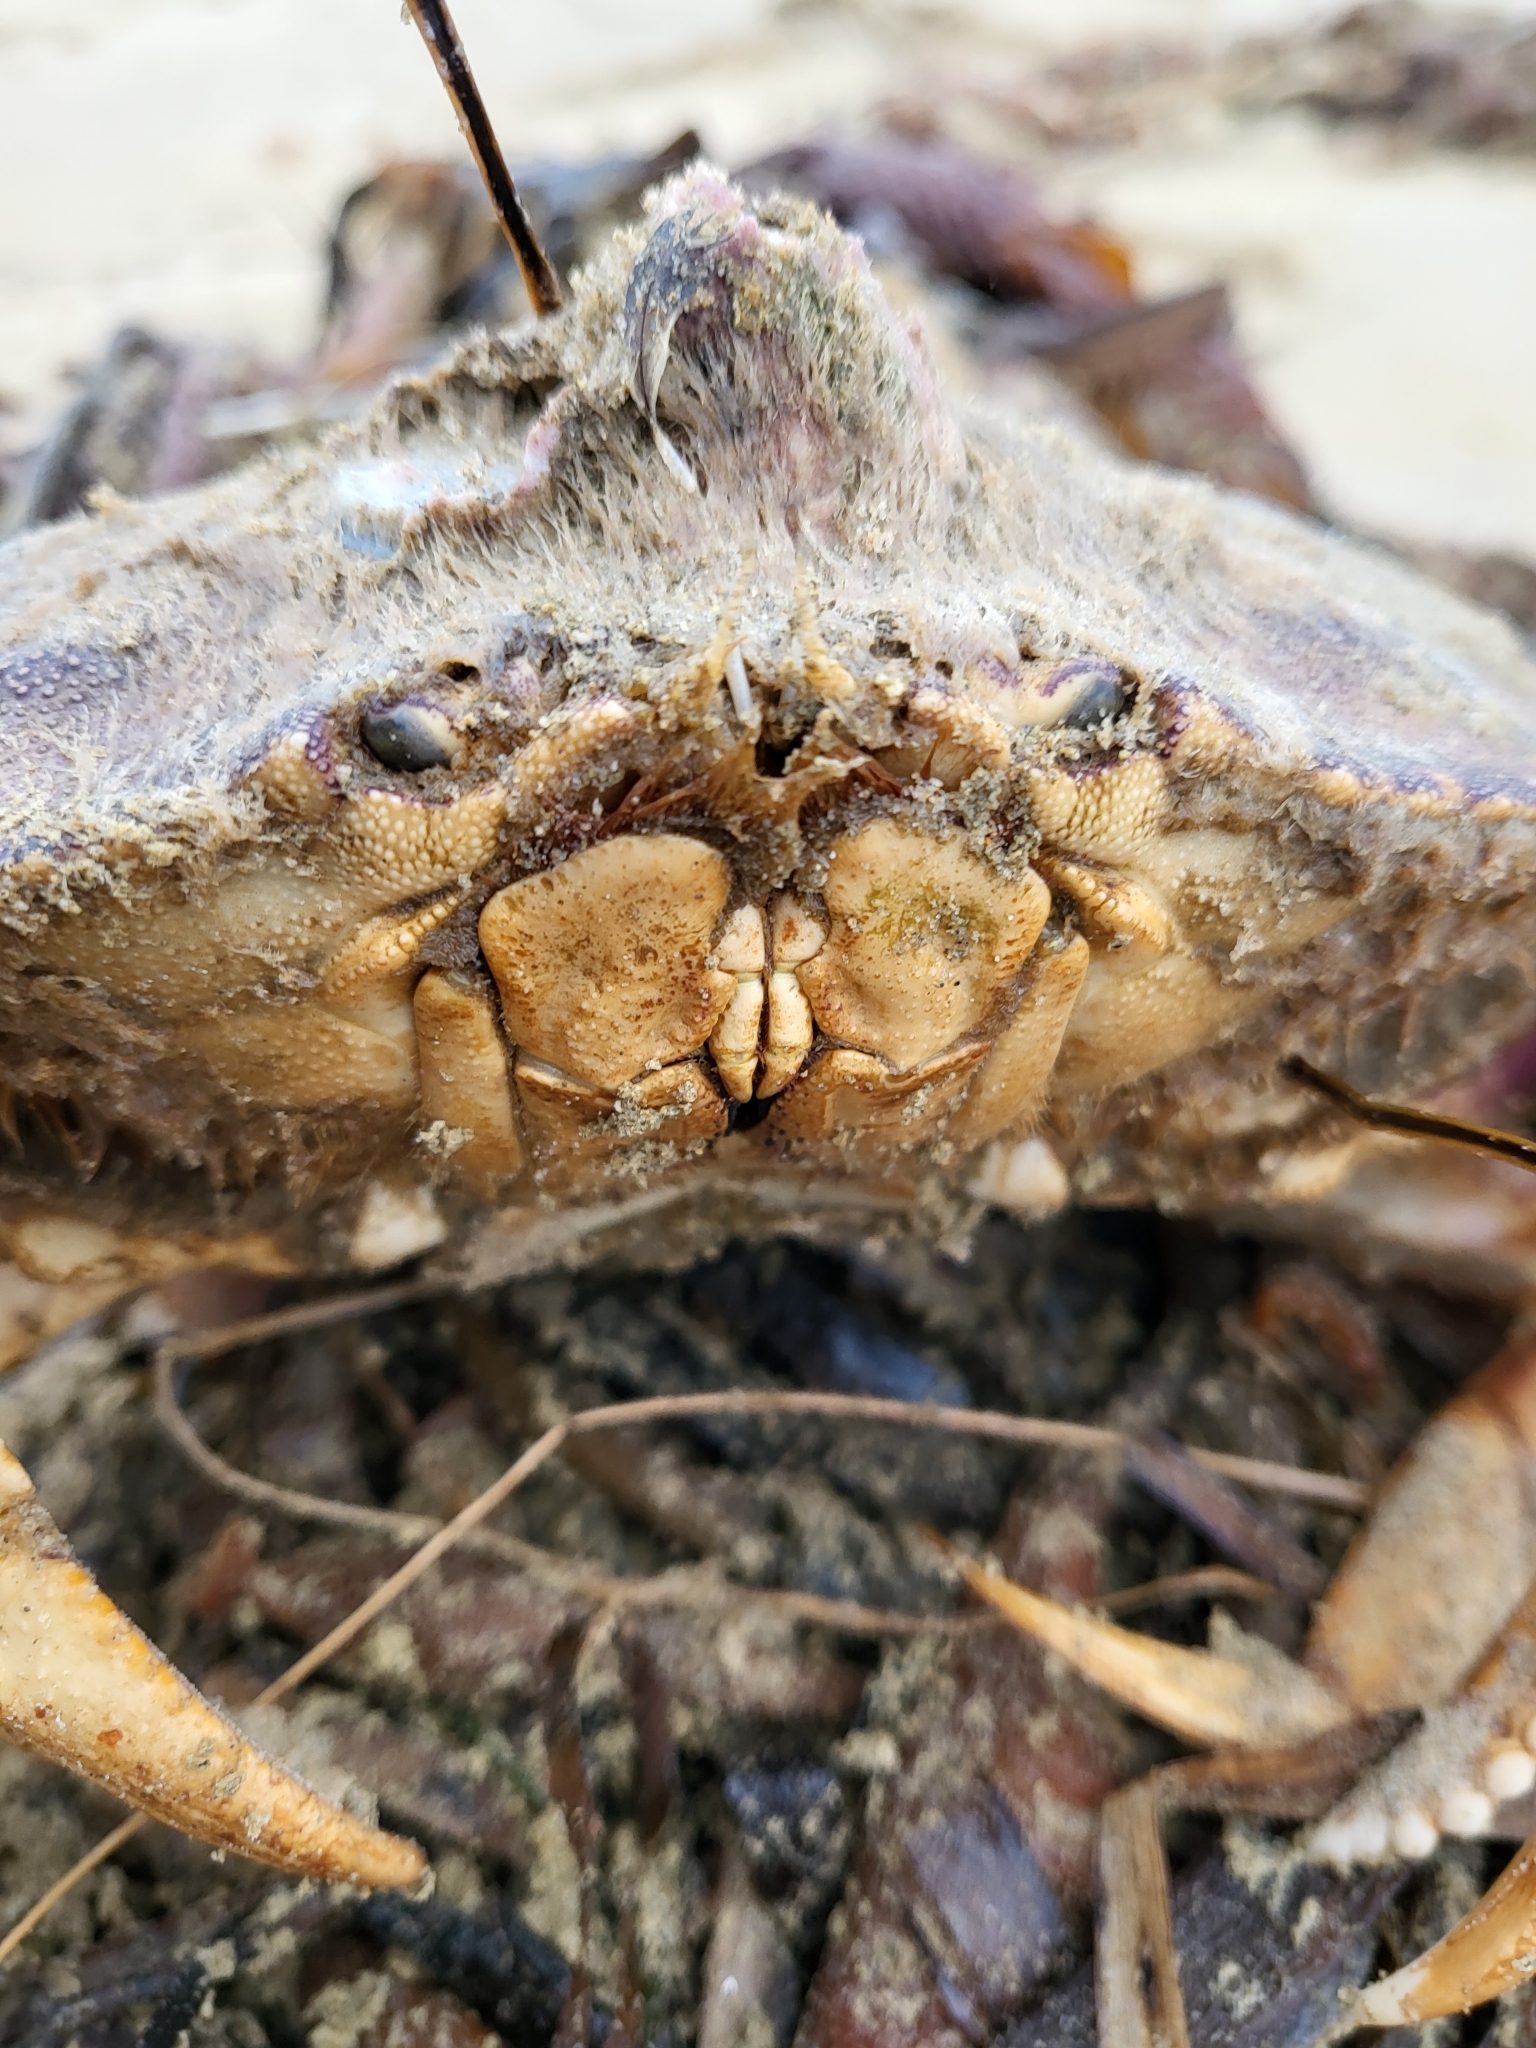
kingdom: Animalia
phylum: Arthropoda
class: Malacostraca
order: Decapoda
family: Cancridae
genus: Metacarcinus
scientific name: Metacarcinus magister
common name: Californian crab
